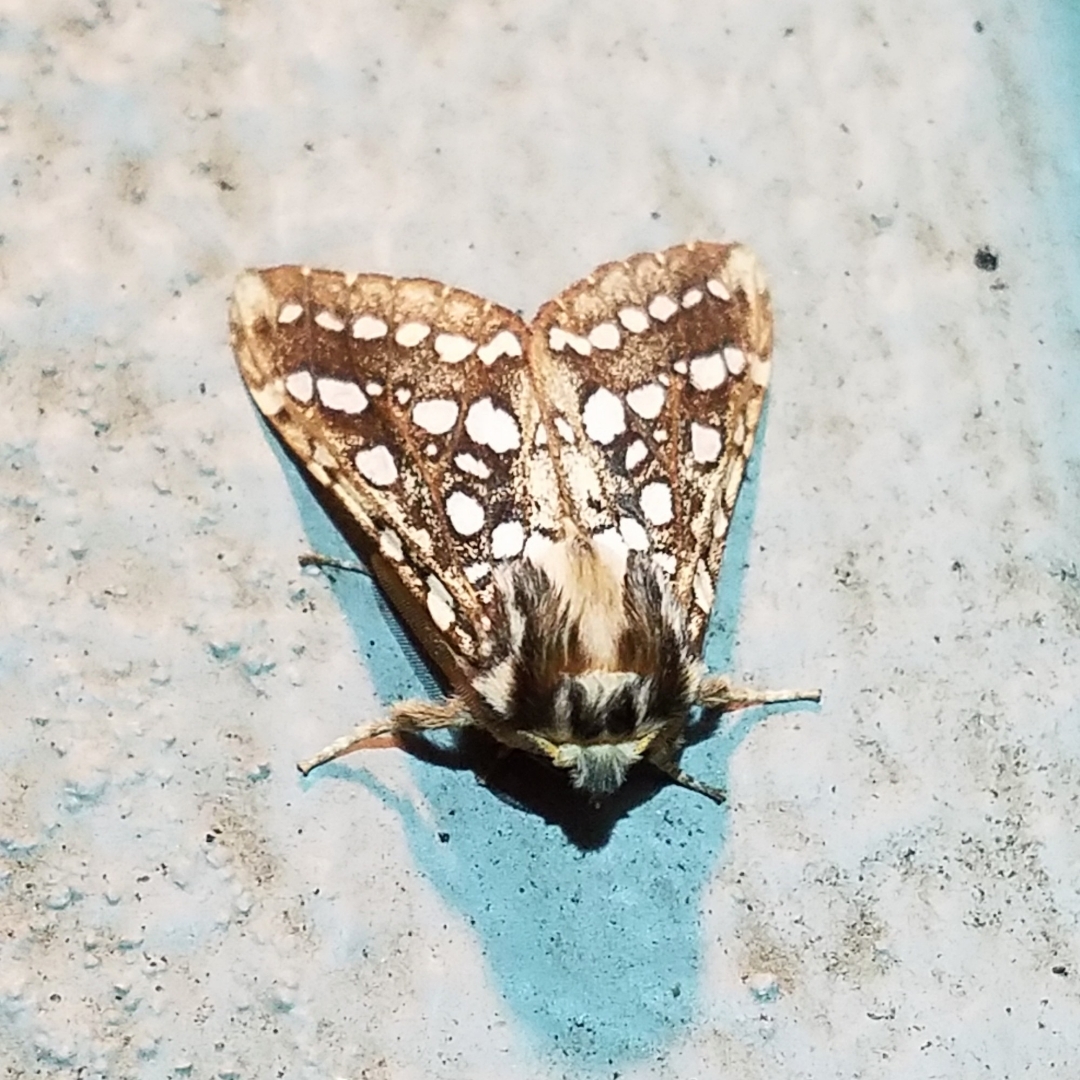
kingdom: Animalia
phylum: Arthropoda
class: Insecta
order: Lepidoptera
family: Erebidae
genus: Lophocampa
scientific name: Lophocampa argentata
